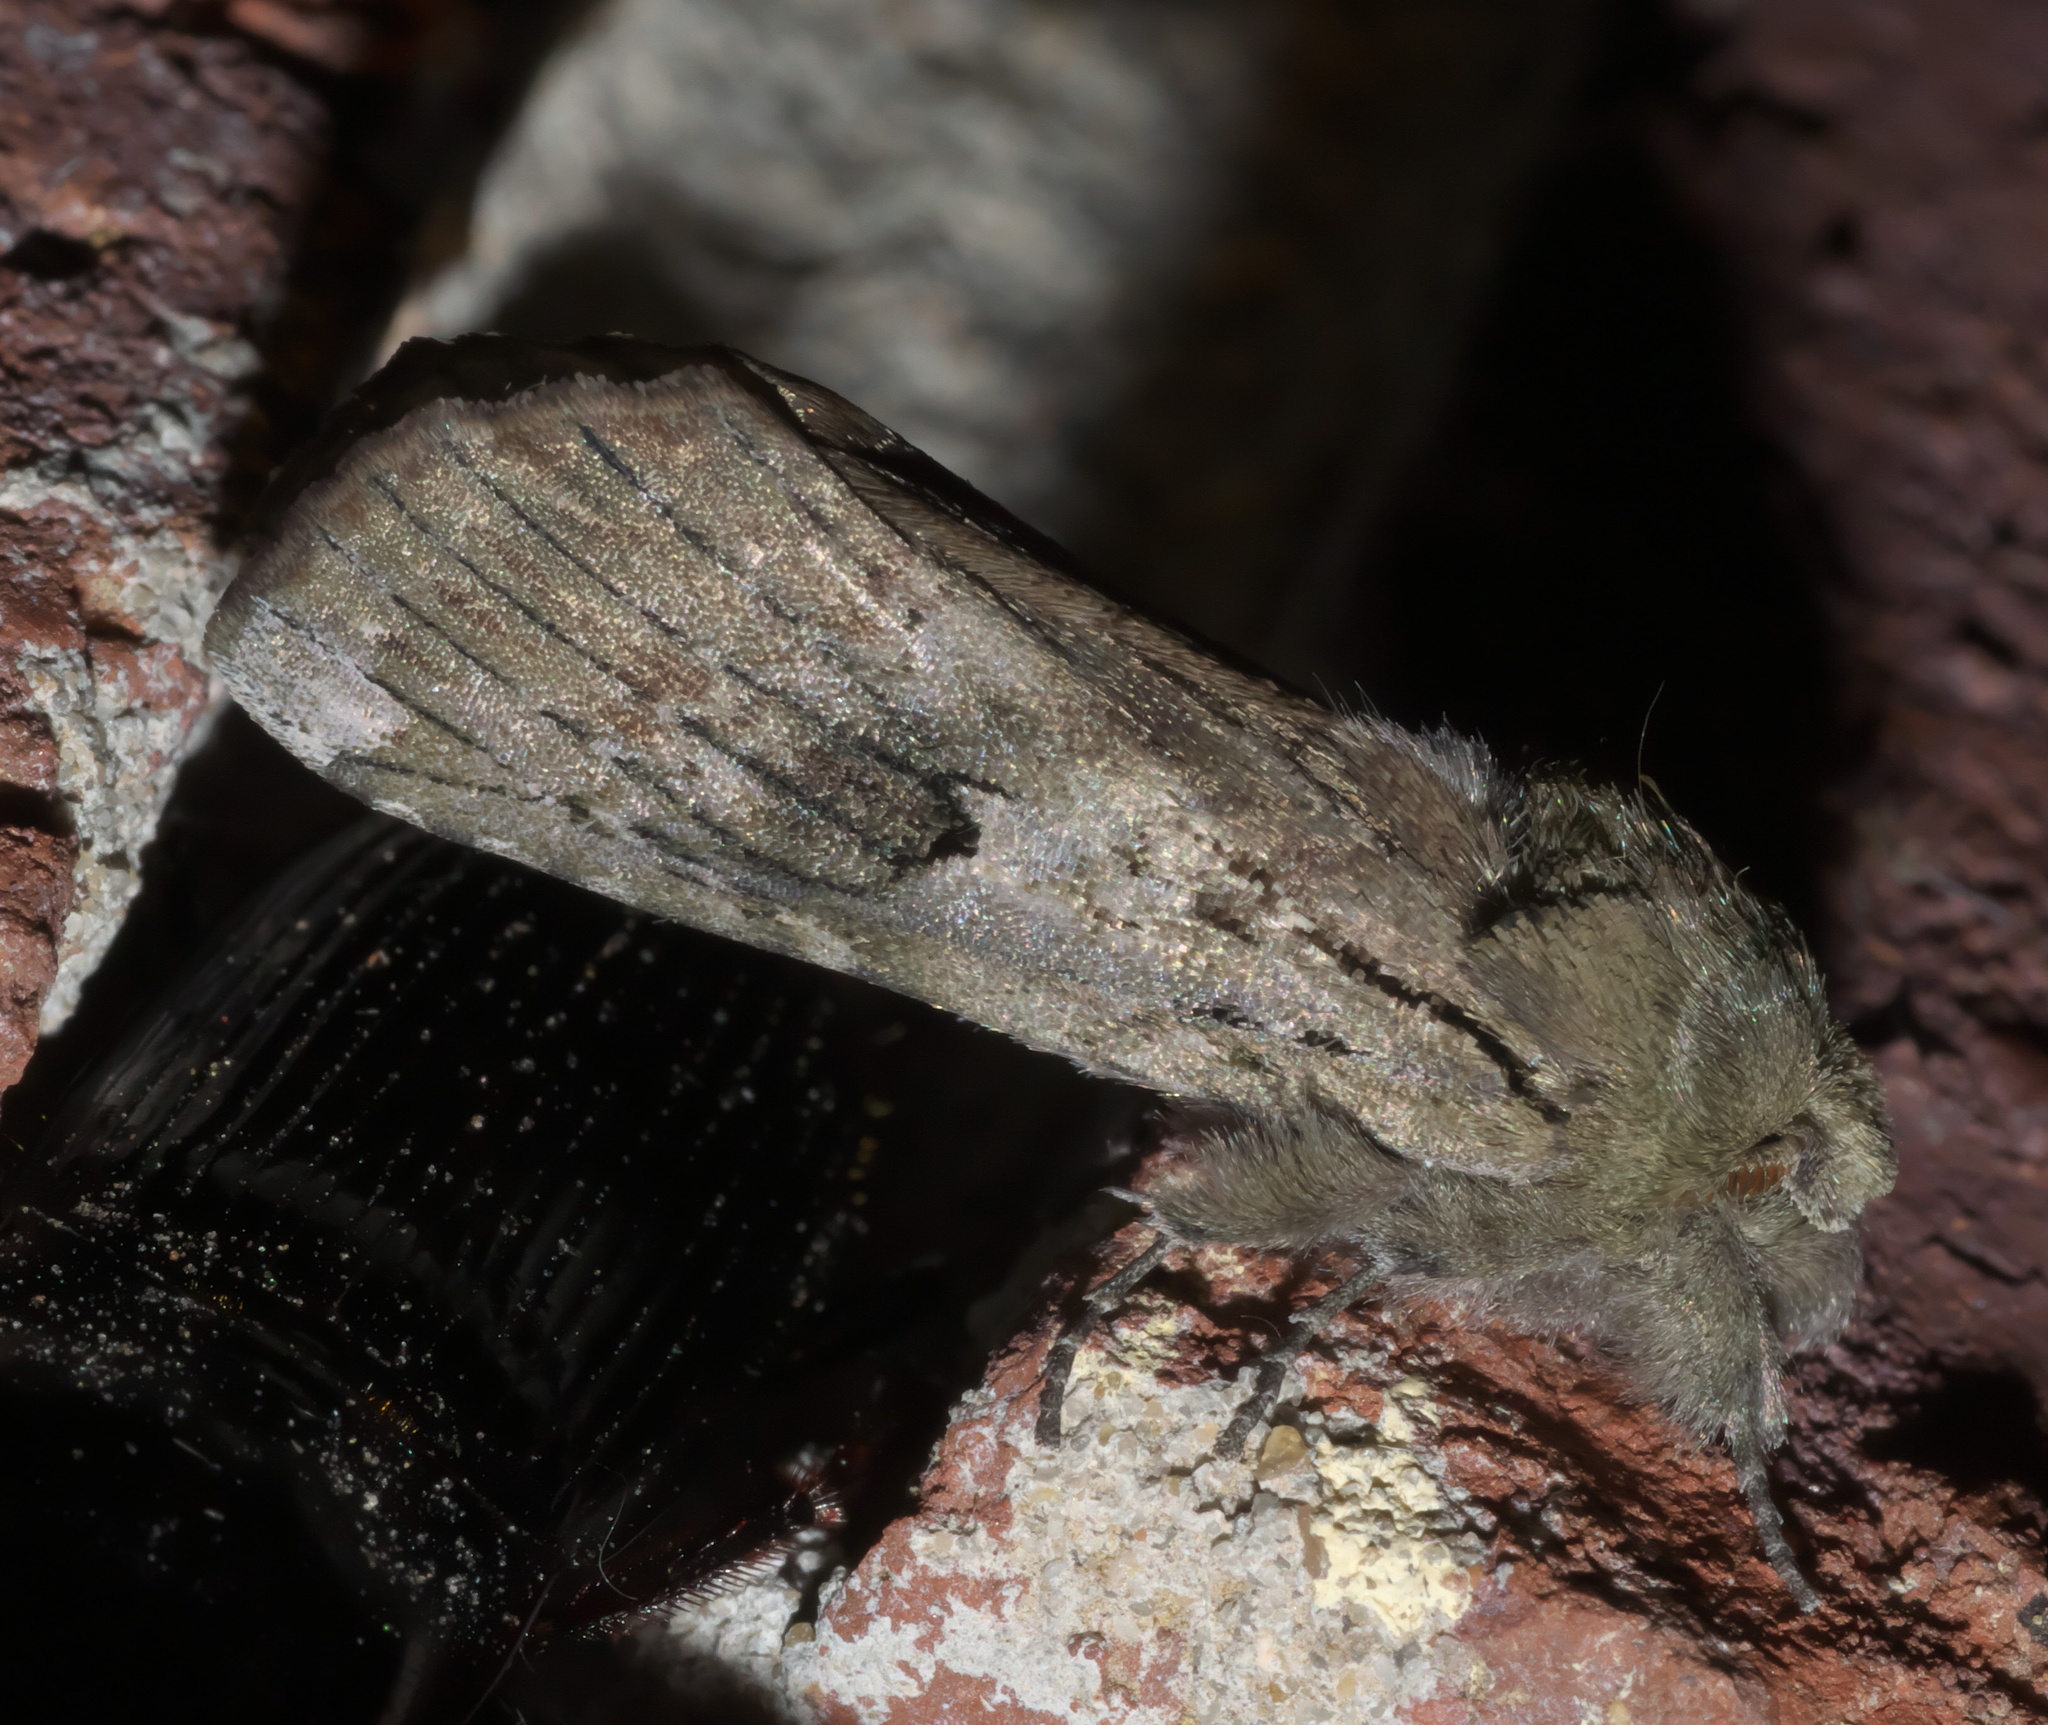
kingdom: Animalia
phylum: Arthropoda
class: Insecta
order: Lepidoptera
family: Notodontidae
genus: Schizura
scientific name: Schizura
